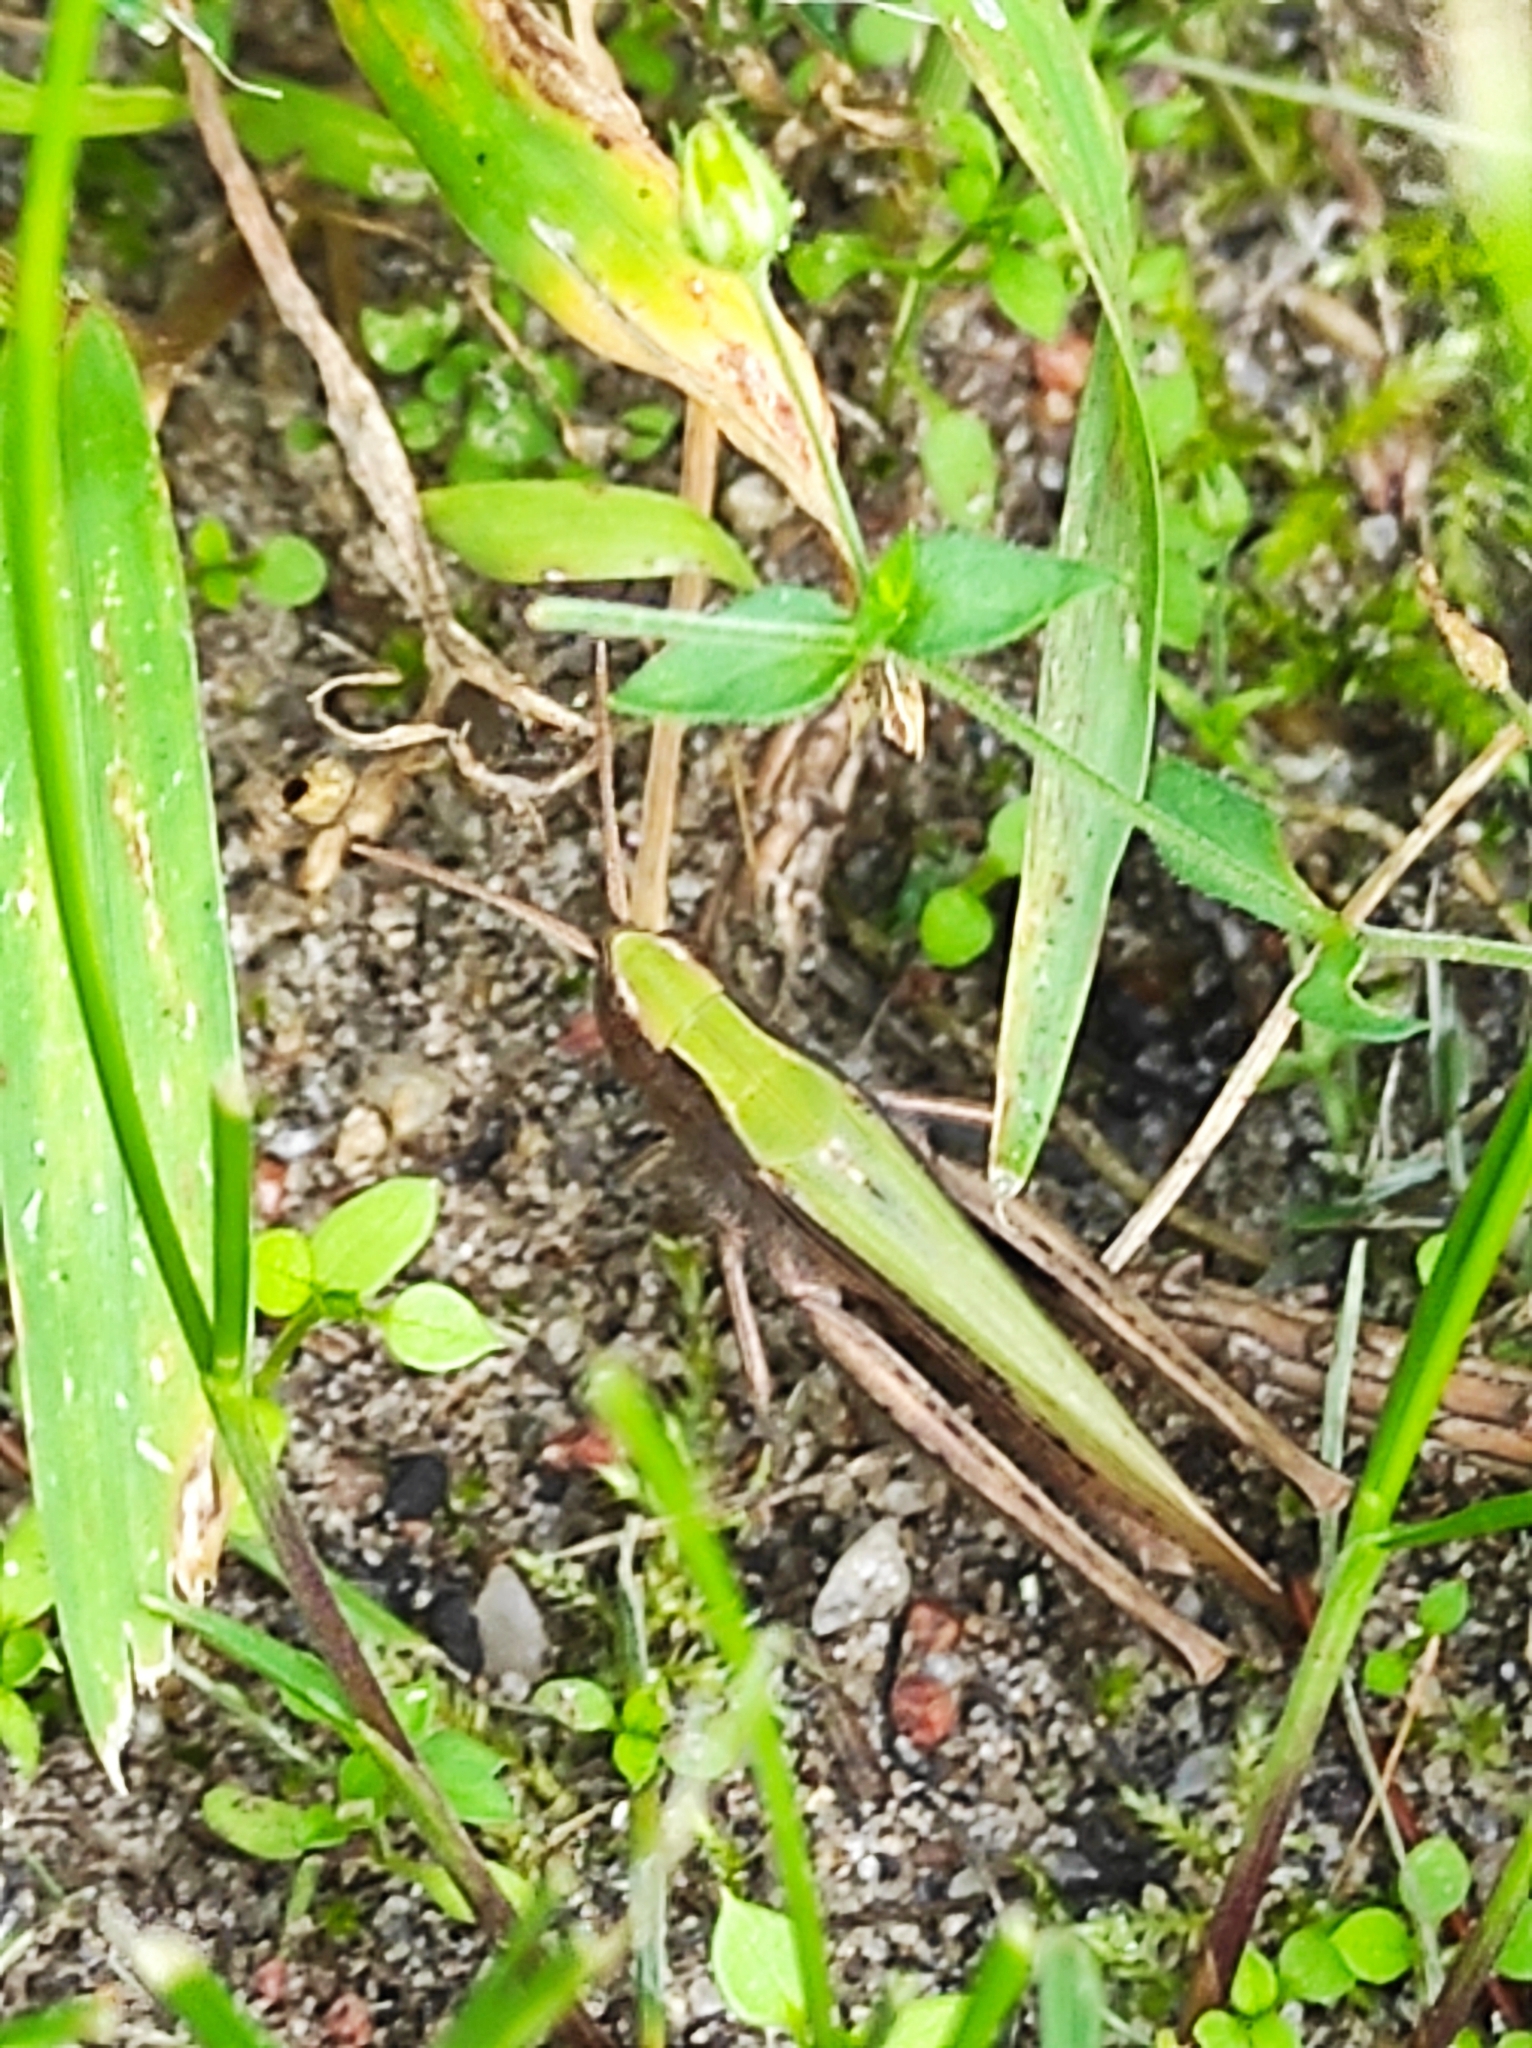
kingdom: Animalia
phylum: Arthropoda
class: Insecta
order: Orthoptera
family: Acrididae
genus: Chorthippus
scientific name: Chorthippus dorsatus
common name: Steppe grasshopper
